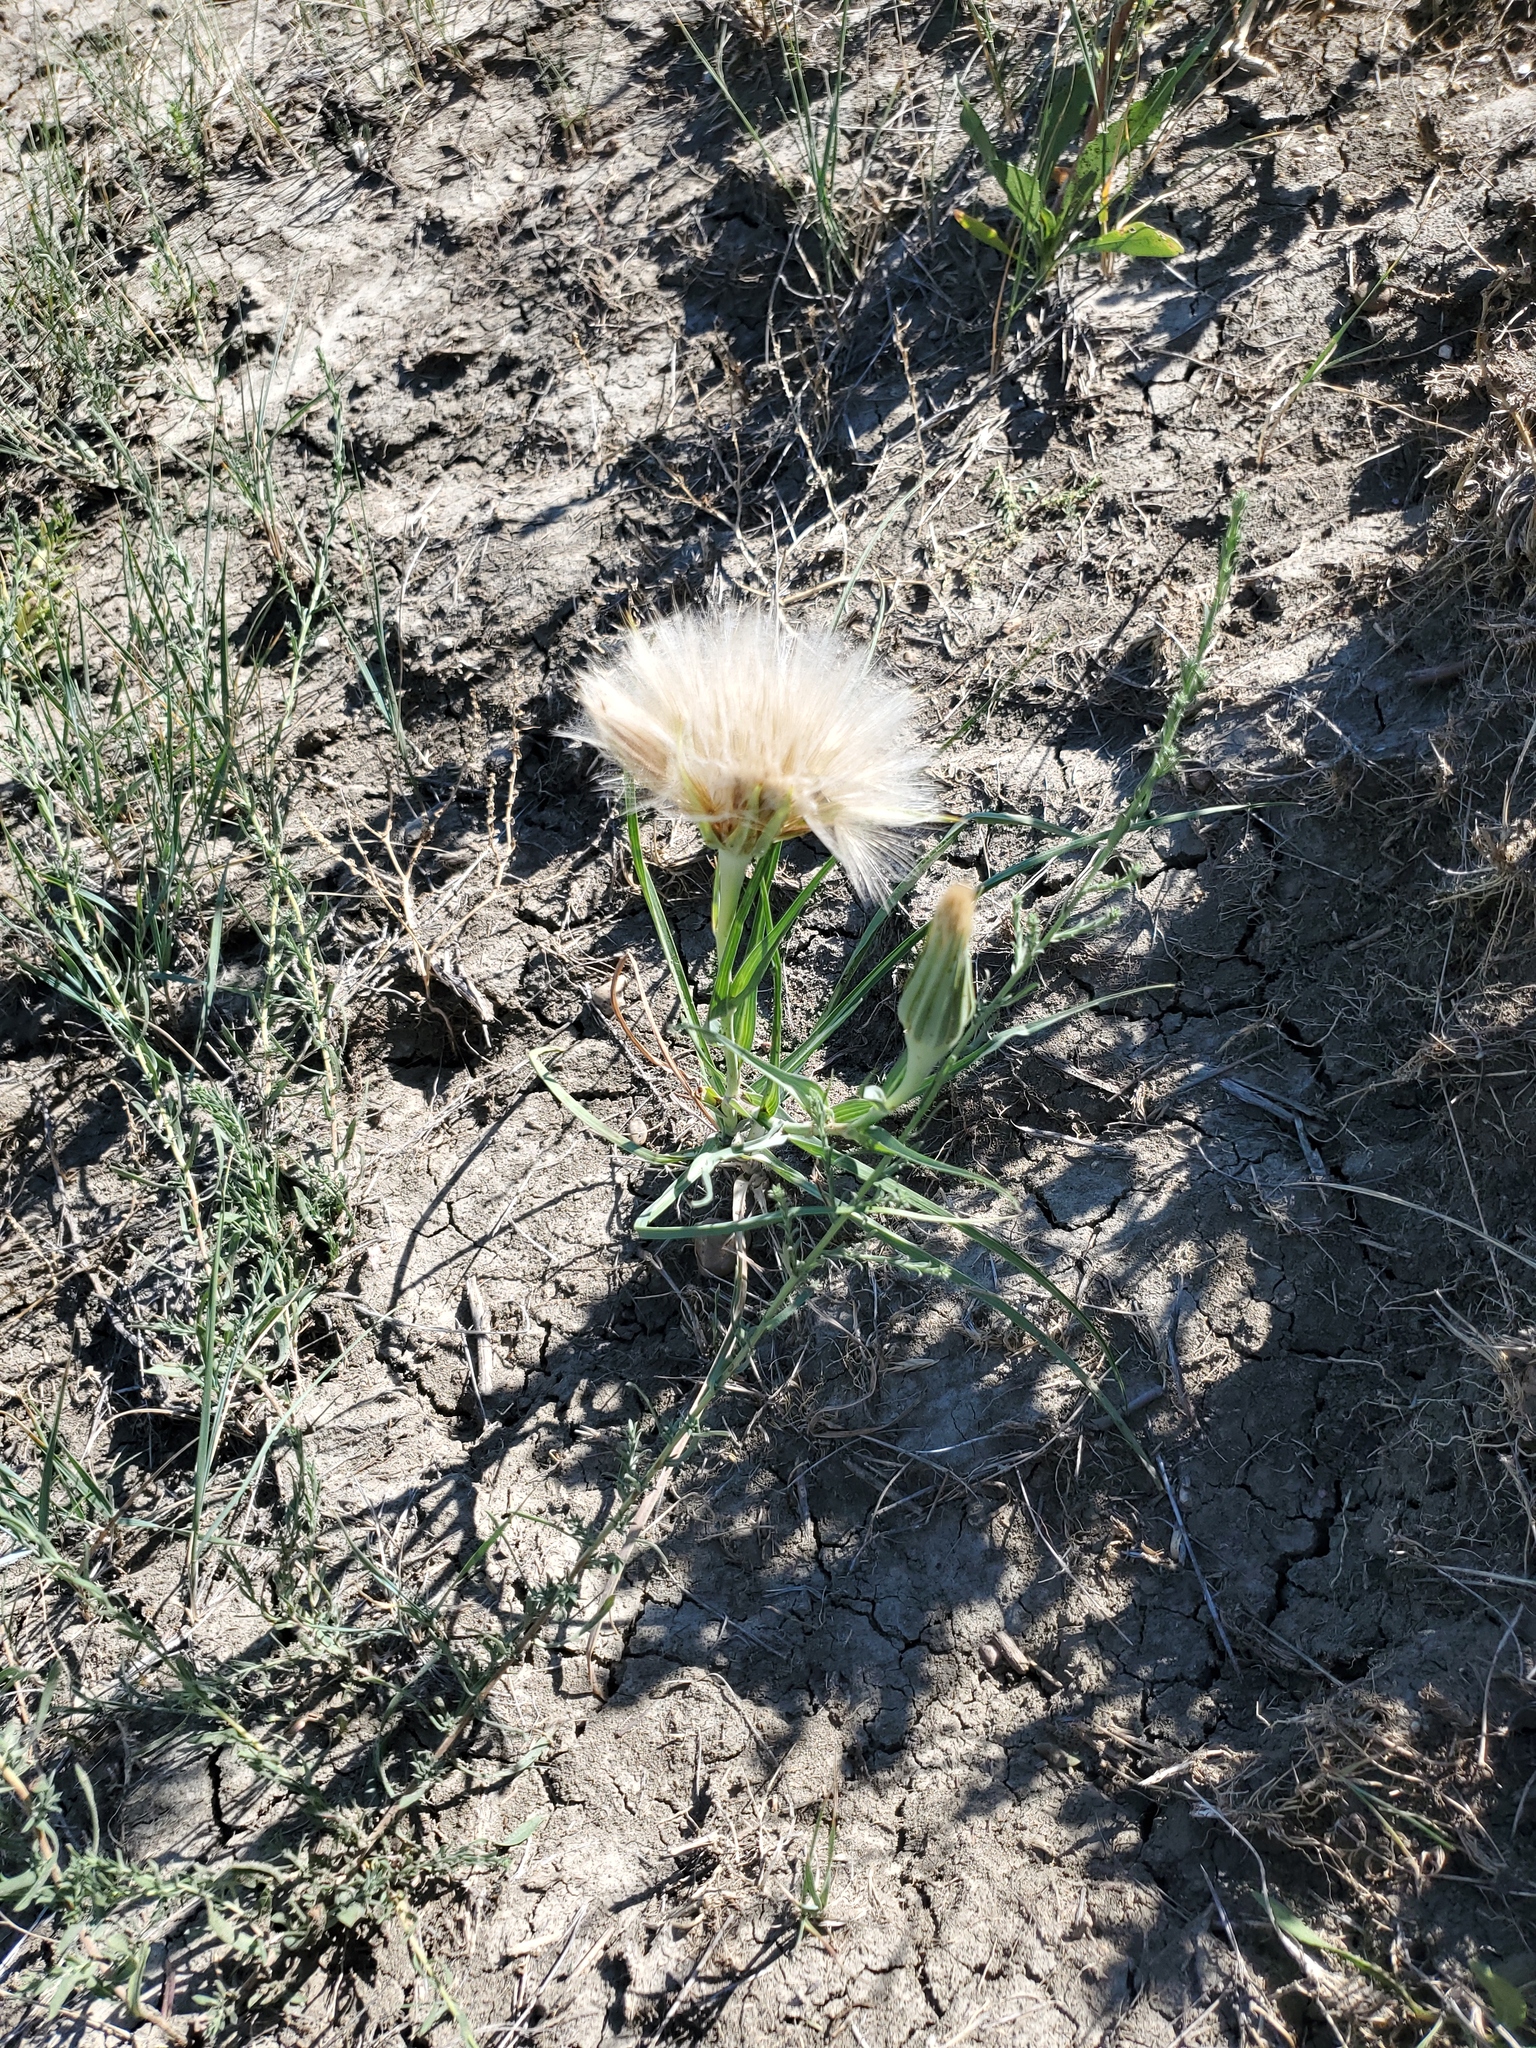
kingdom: Plantae
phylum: Tracheophyta
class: Magnoliopsida
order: Asterales
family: Asteraceae
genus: Tragopogon
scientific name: Tragopogon dubius
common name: Yellow salsify
